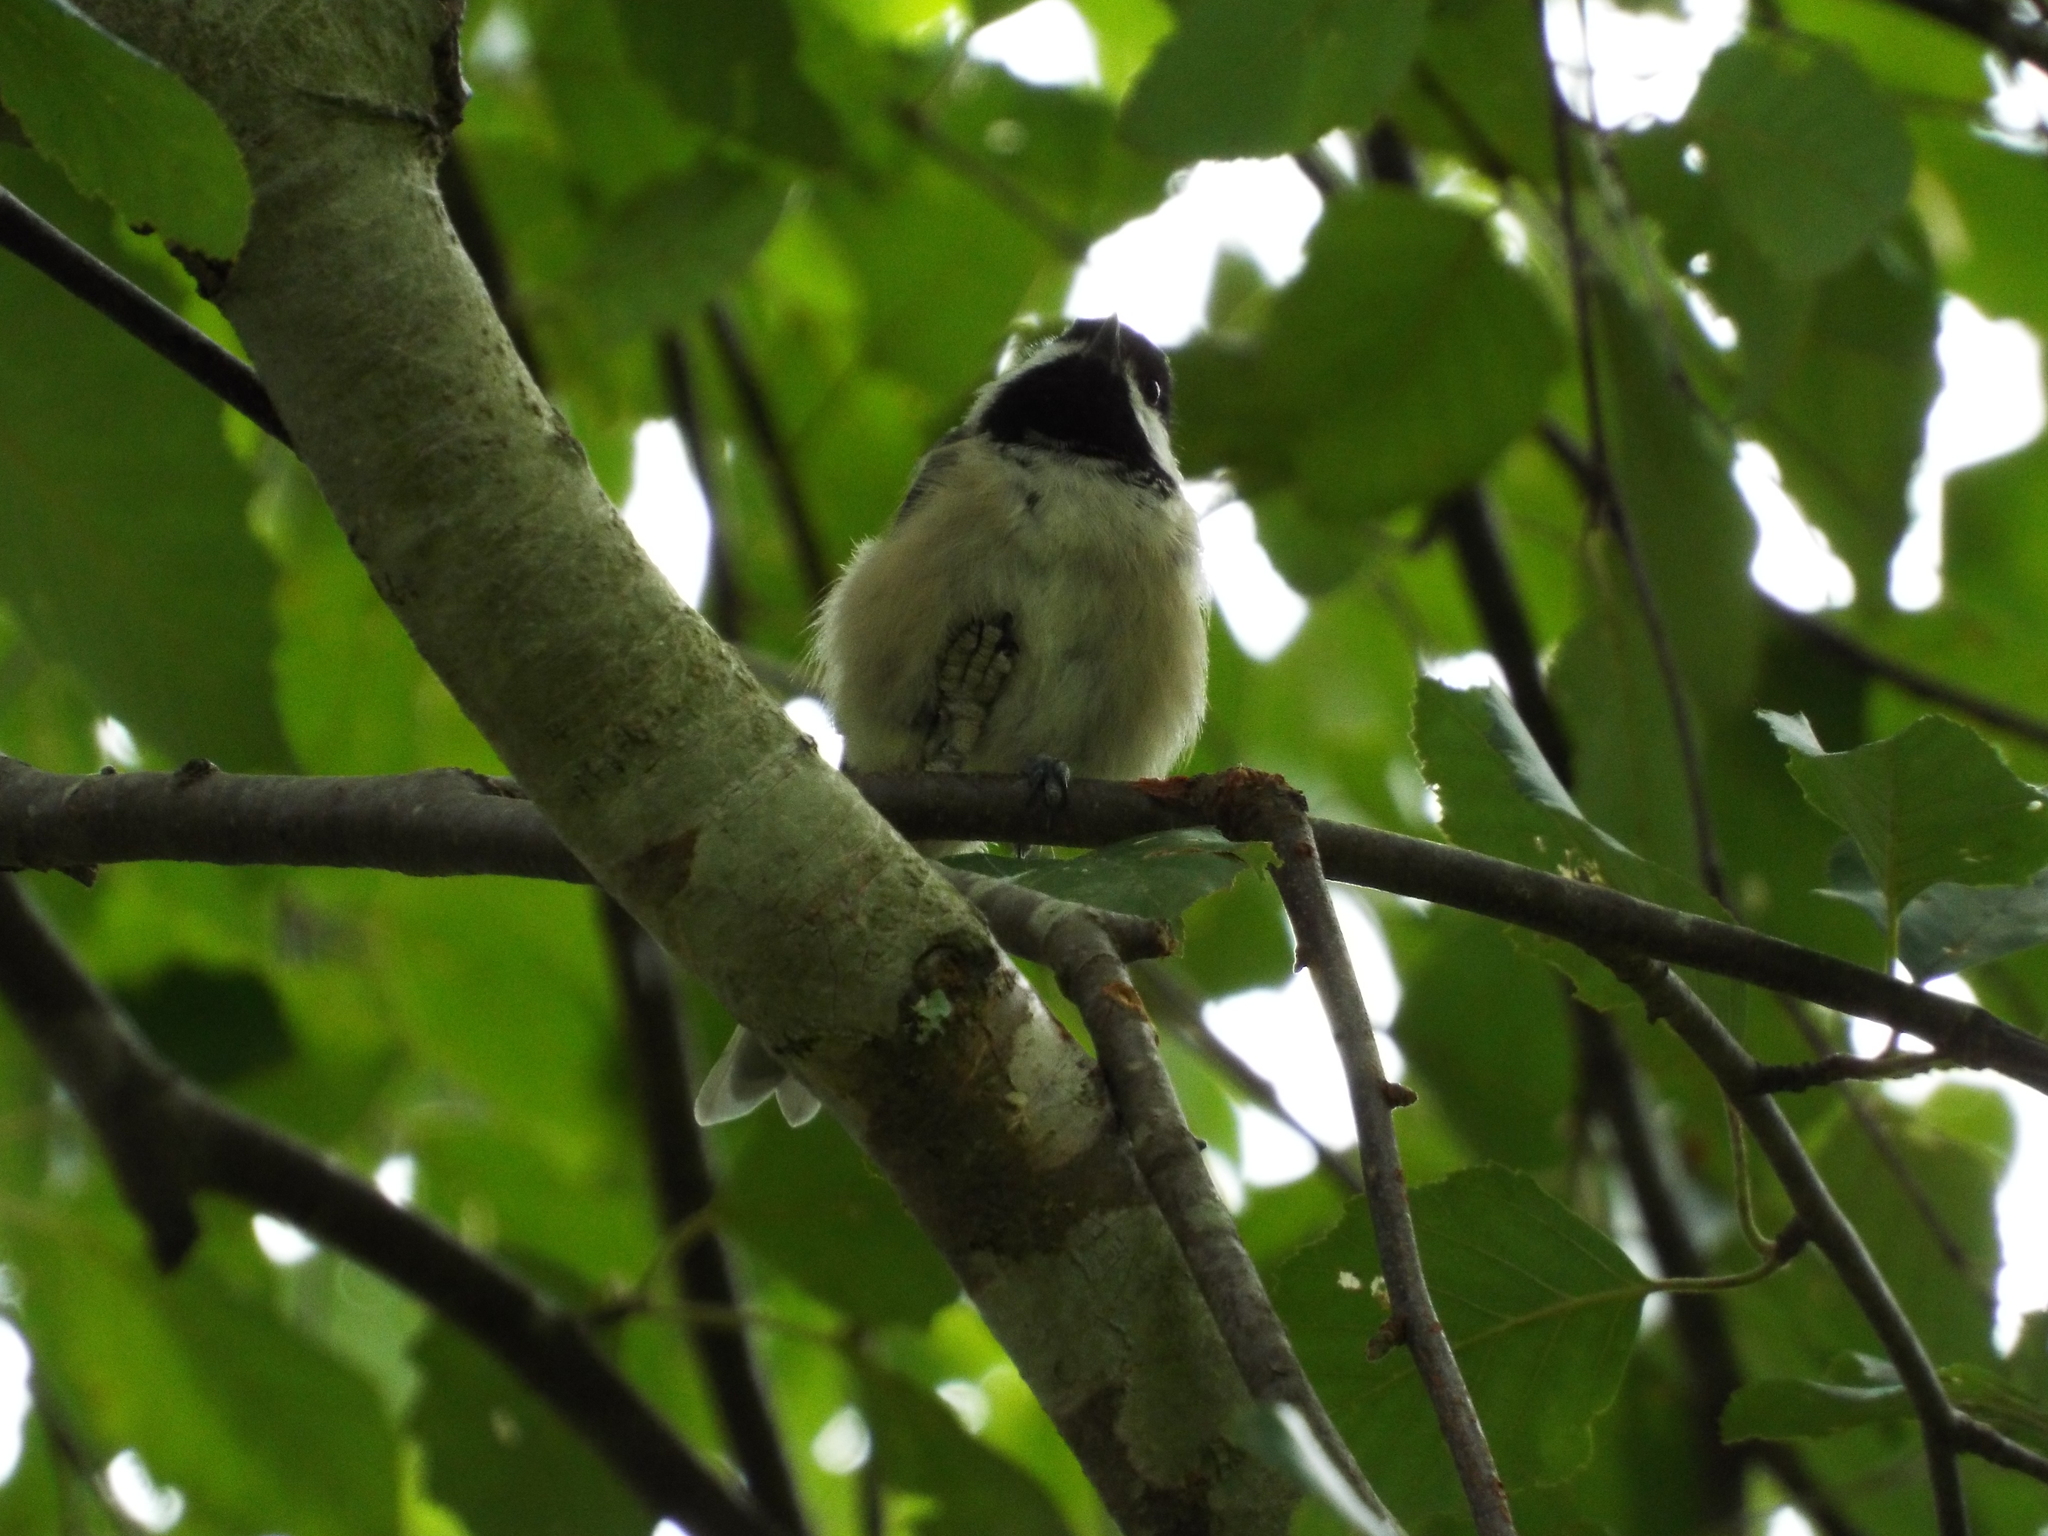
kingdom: Animalia
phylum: Chordata
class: Aves
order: Passeriformes
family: Paridae
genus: Poecile
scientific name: Poecile carolinensis
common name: Carolina chickadee
